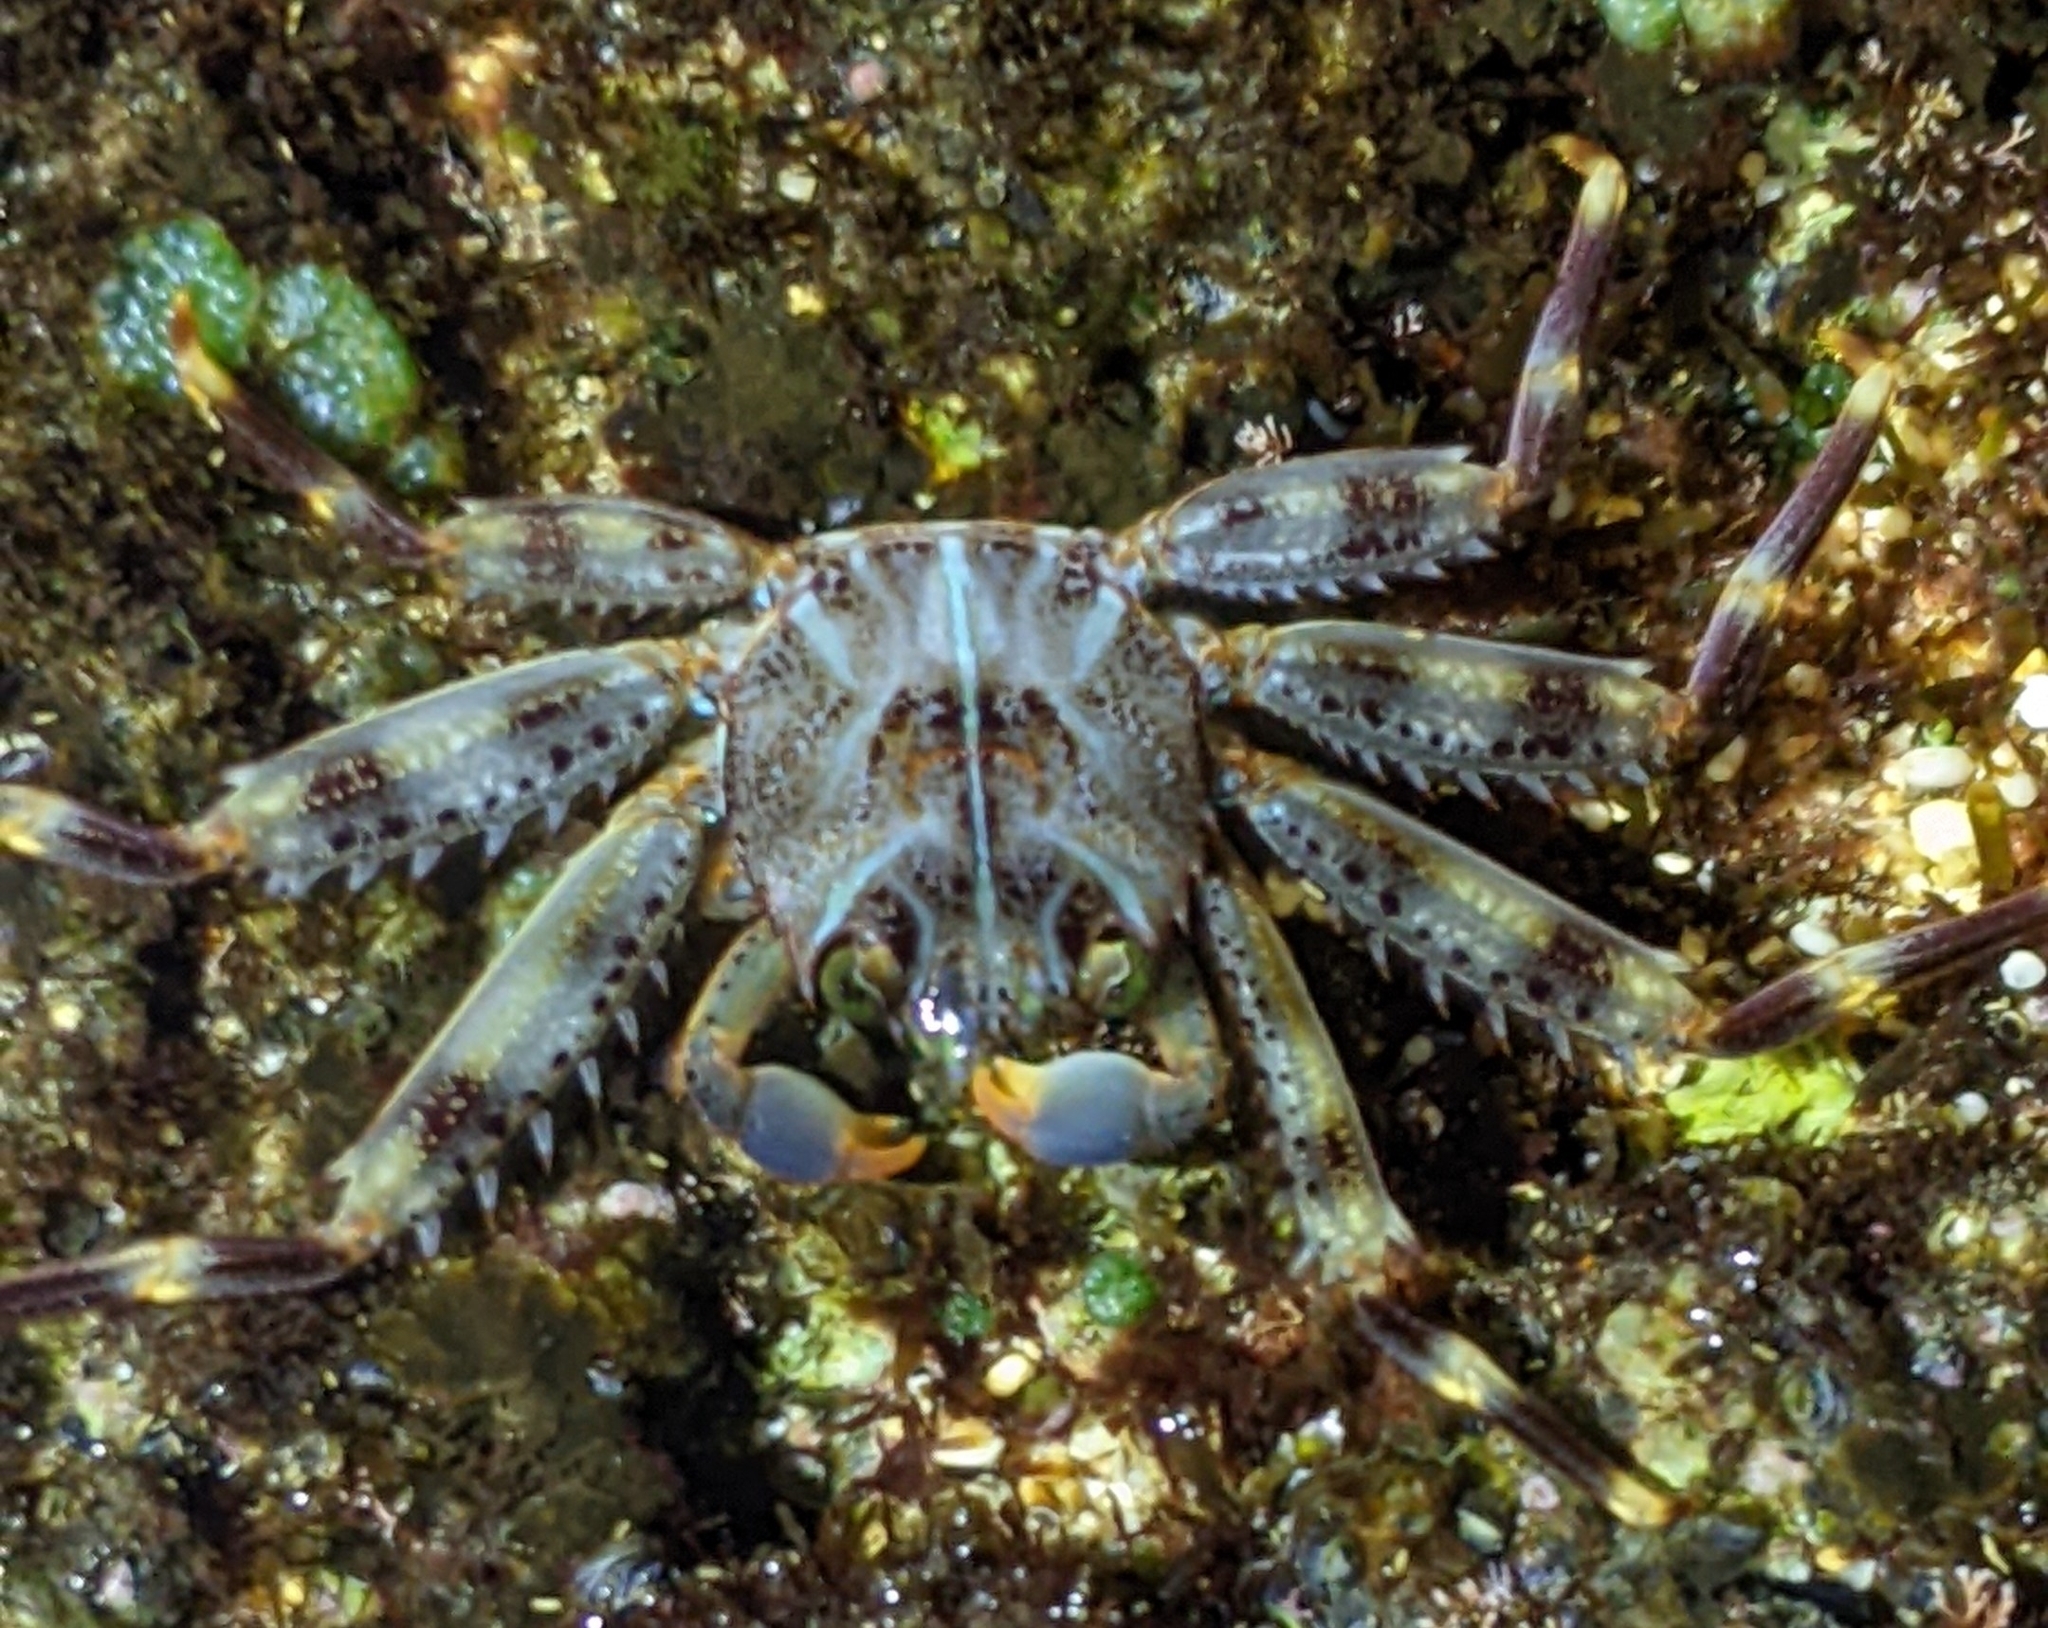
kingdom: Animalia
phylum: Arthropoda
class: Malacostraca
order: Decapoda
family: Percnidae
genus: Percnon
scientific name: Percnon planissimum
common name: Flat rock crab
